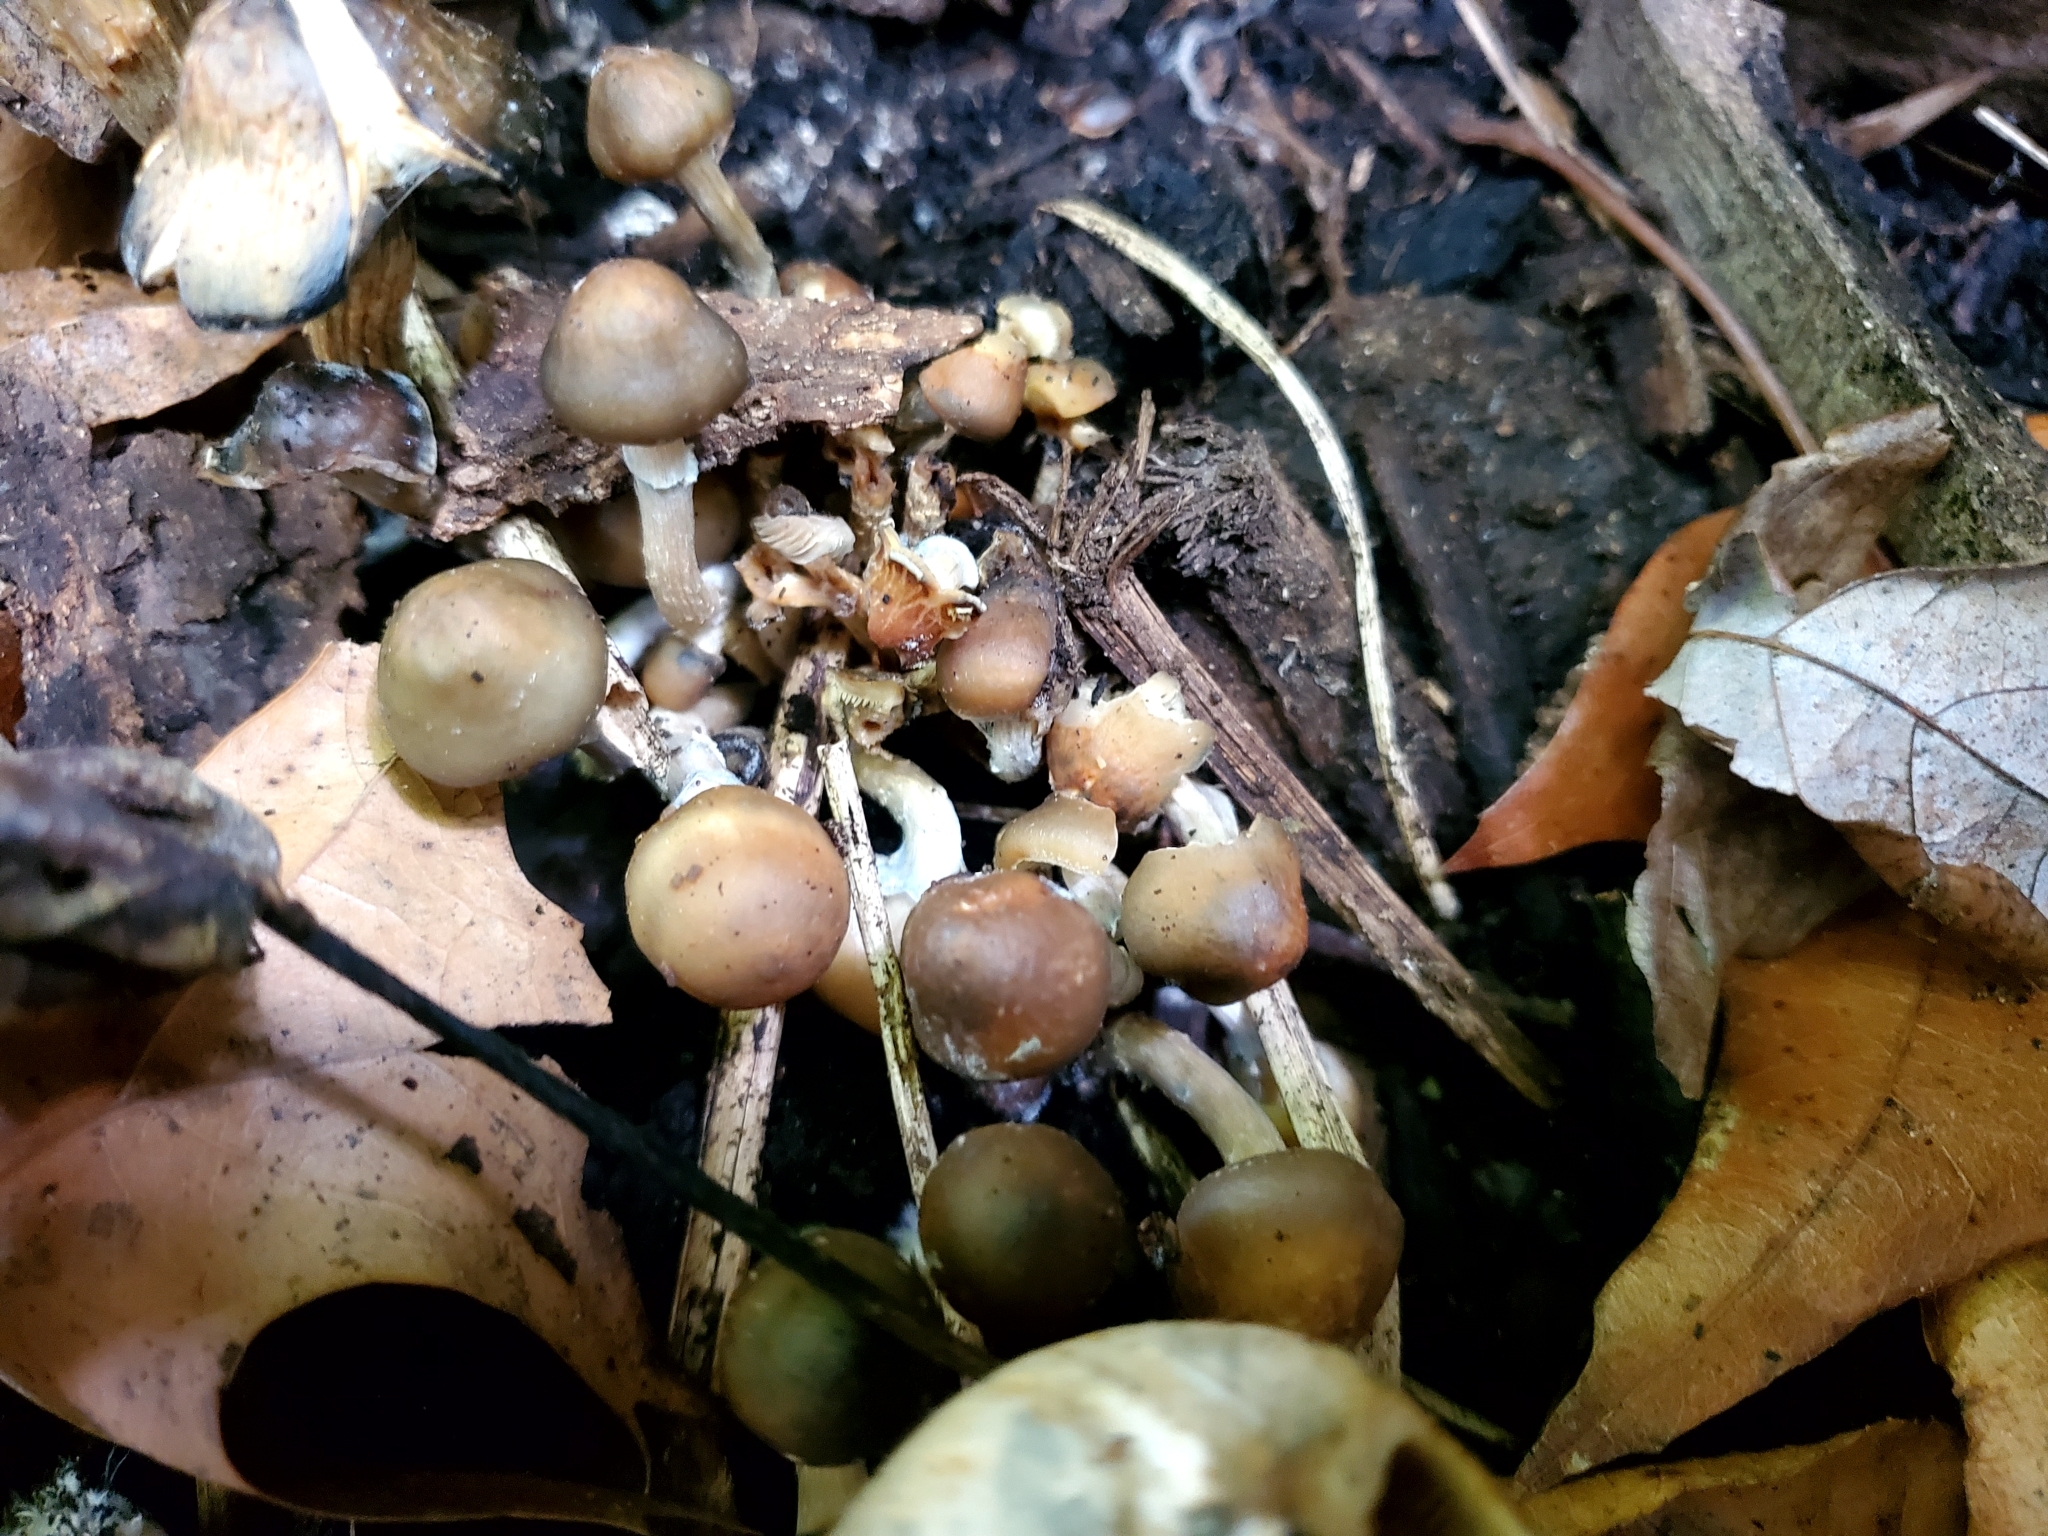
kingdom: Fungi
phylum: Basidiomycota
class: Agaricomycetes
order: Agaricales
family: Hymenogastraceae
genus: Psilocybe
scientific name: Psilocybe ovoideocystidiata
